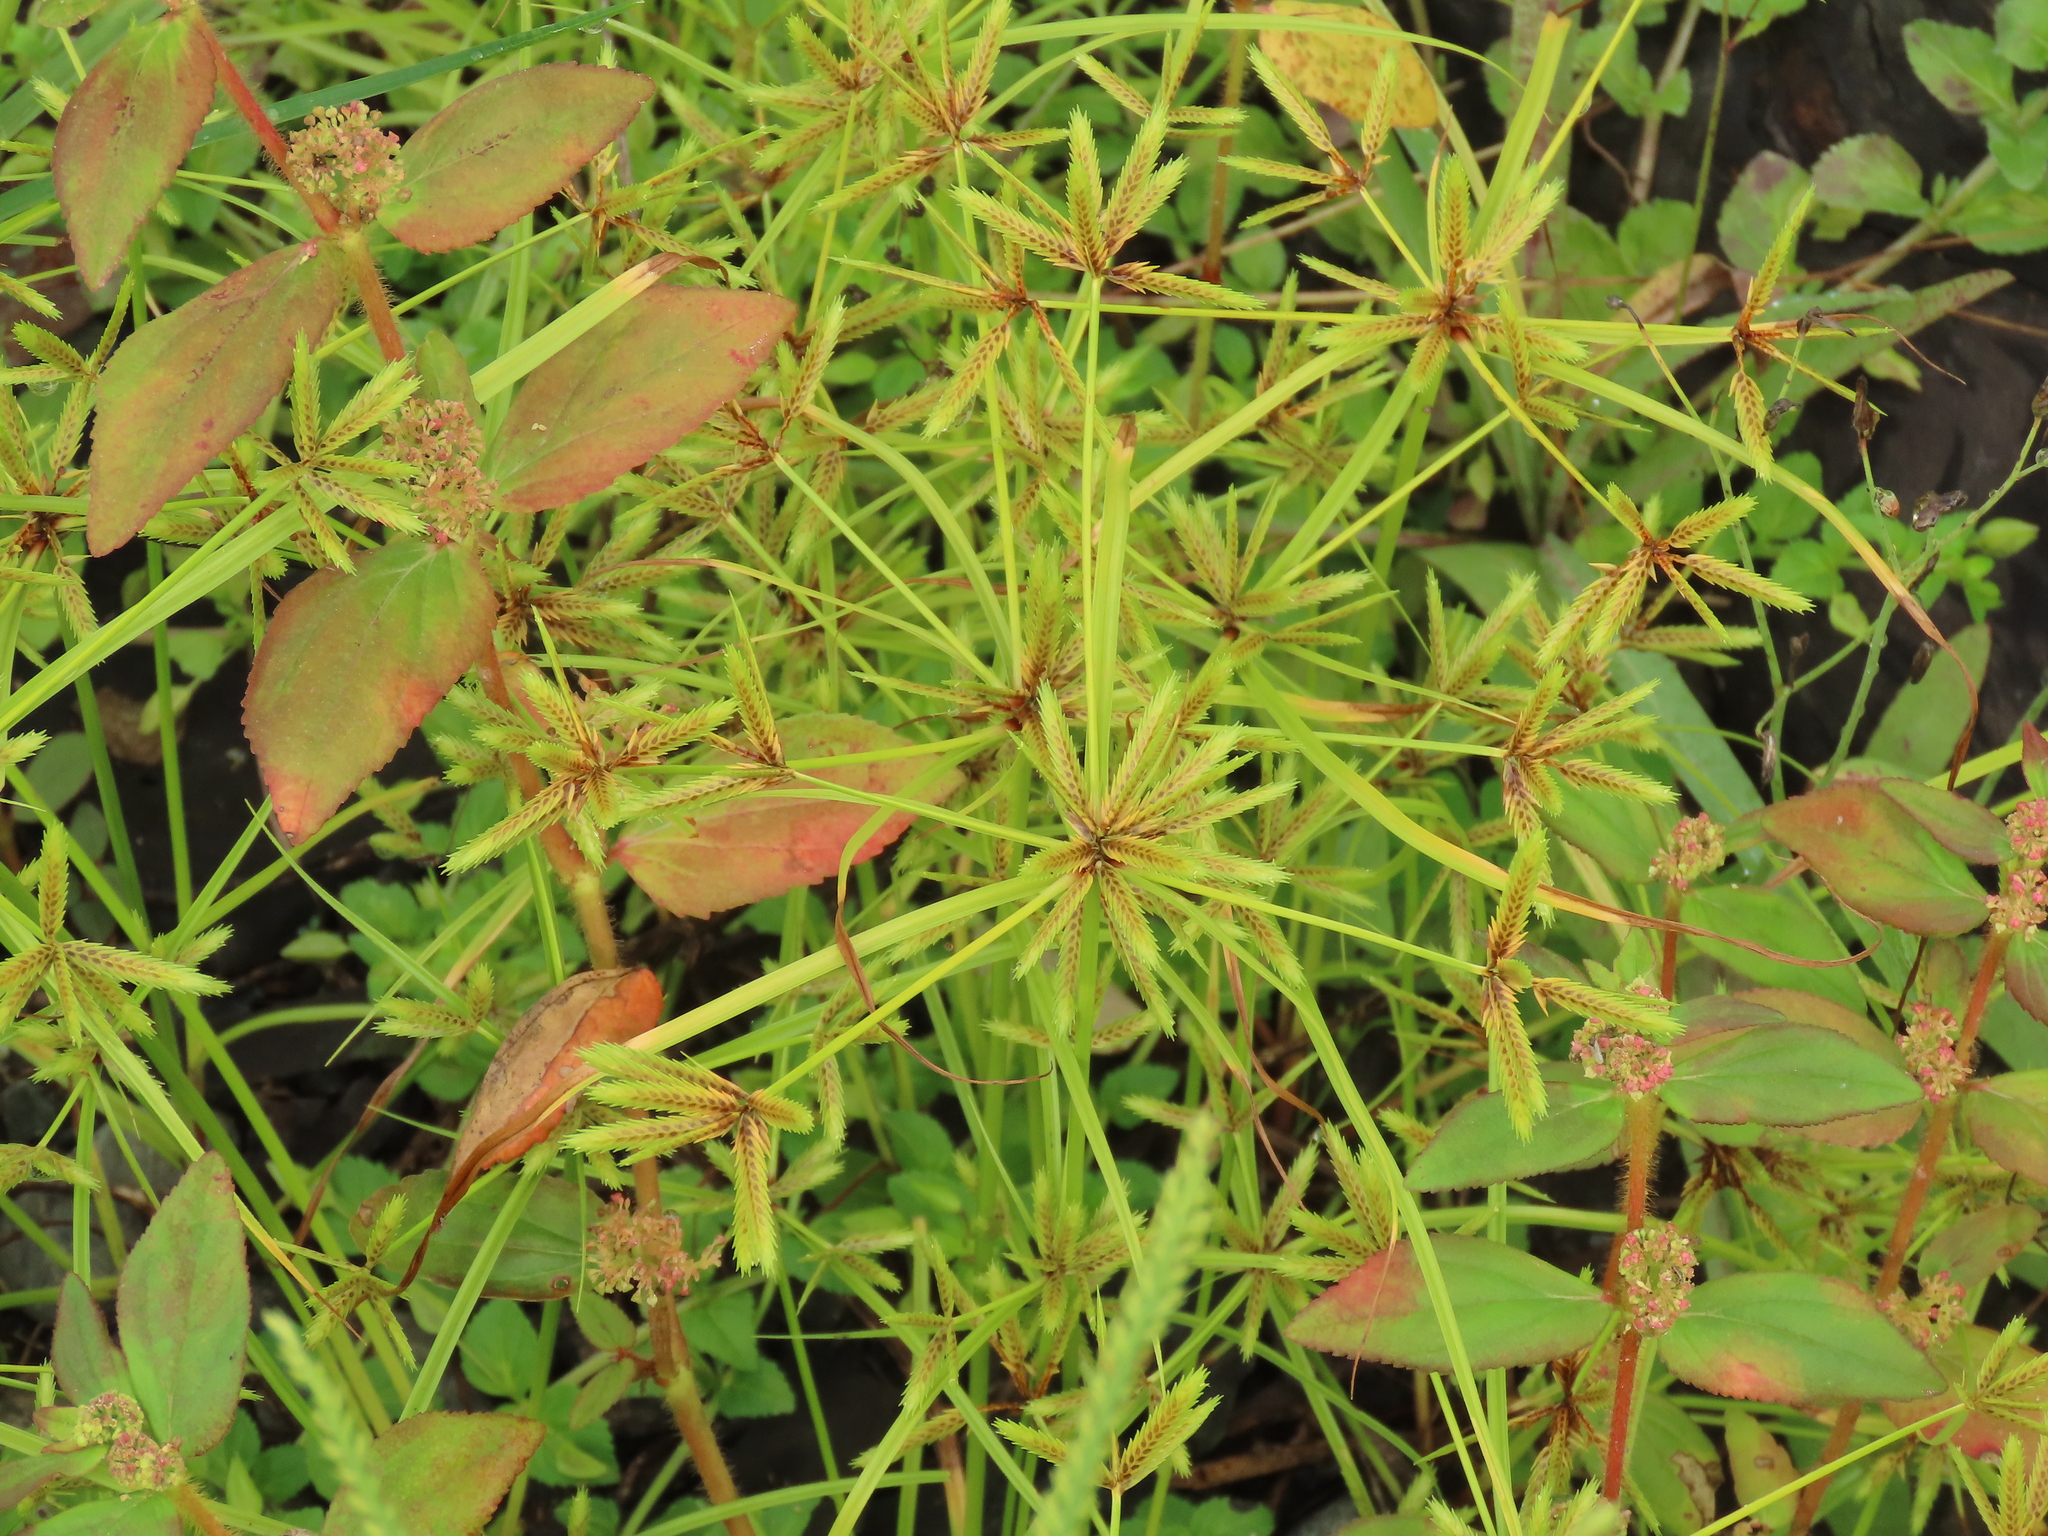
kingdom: Plantae
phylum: Tracheophyta
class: Liliopsida
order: Poales
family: Cyperaceae
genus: Cyperus
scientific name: Cyperus compressus
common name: Poorland flatsedge
